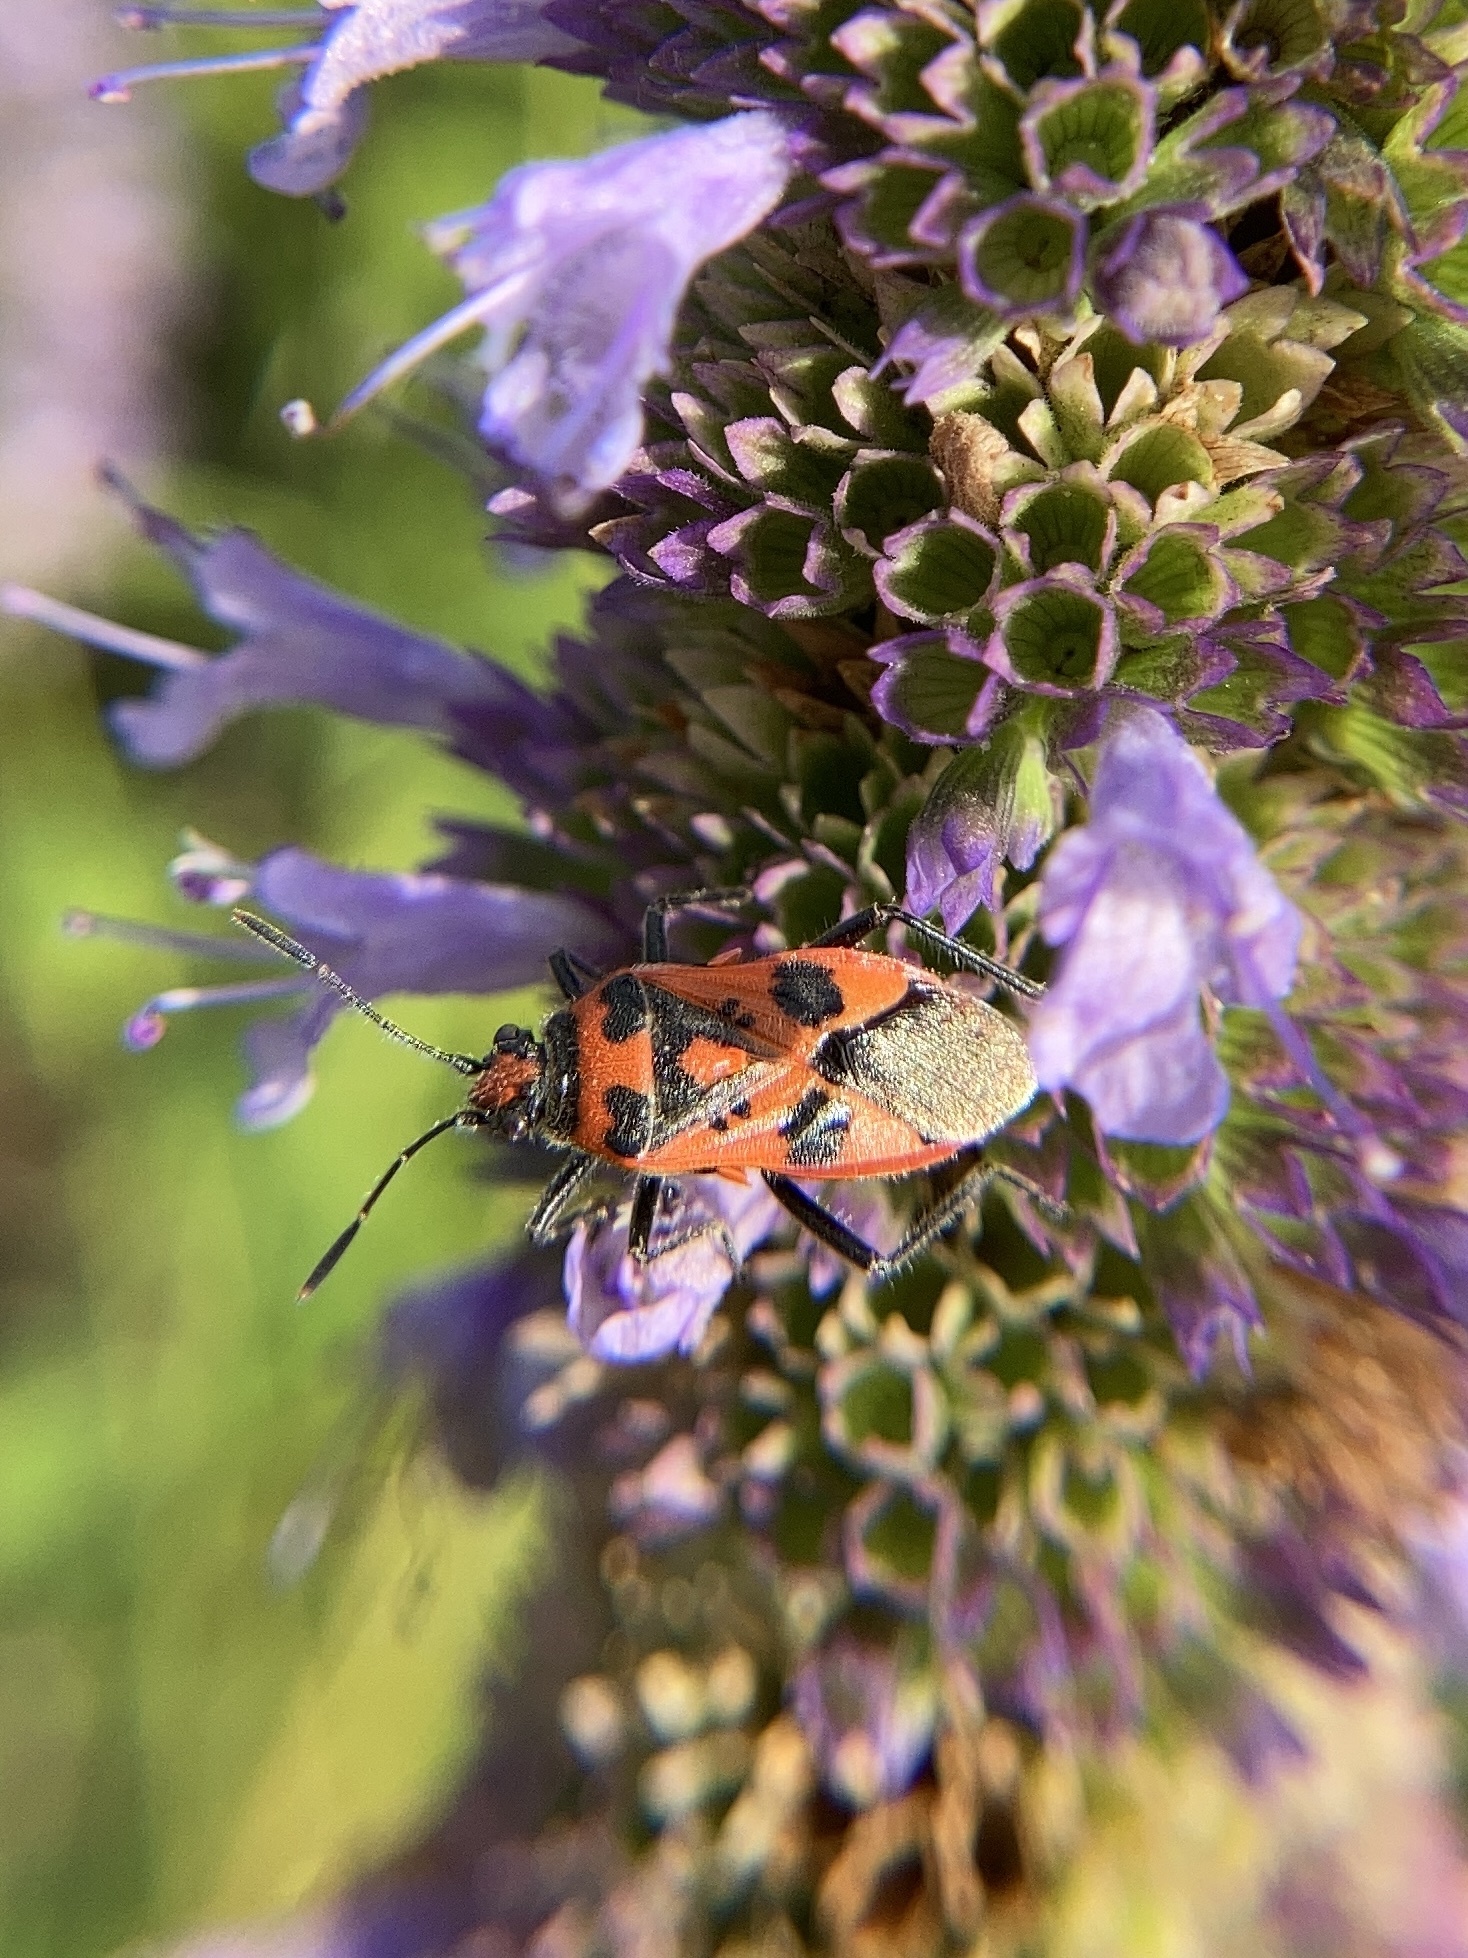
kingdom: Animalia
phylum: Arthropoda
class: Insecta
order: Hemiptera
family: Rhopalidae
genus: Corizus
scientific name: Corizus hyoscyami
